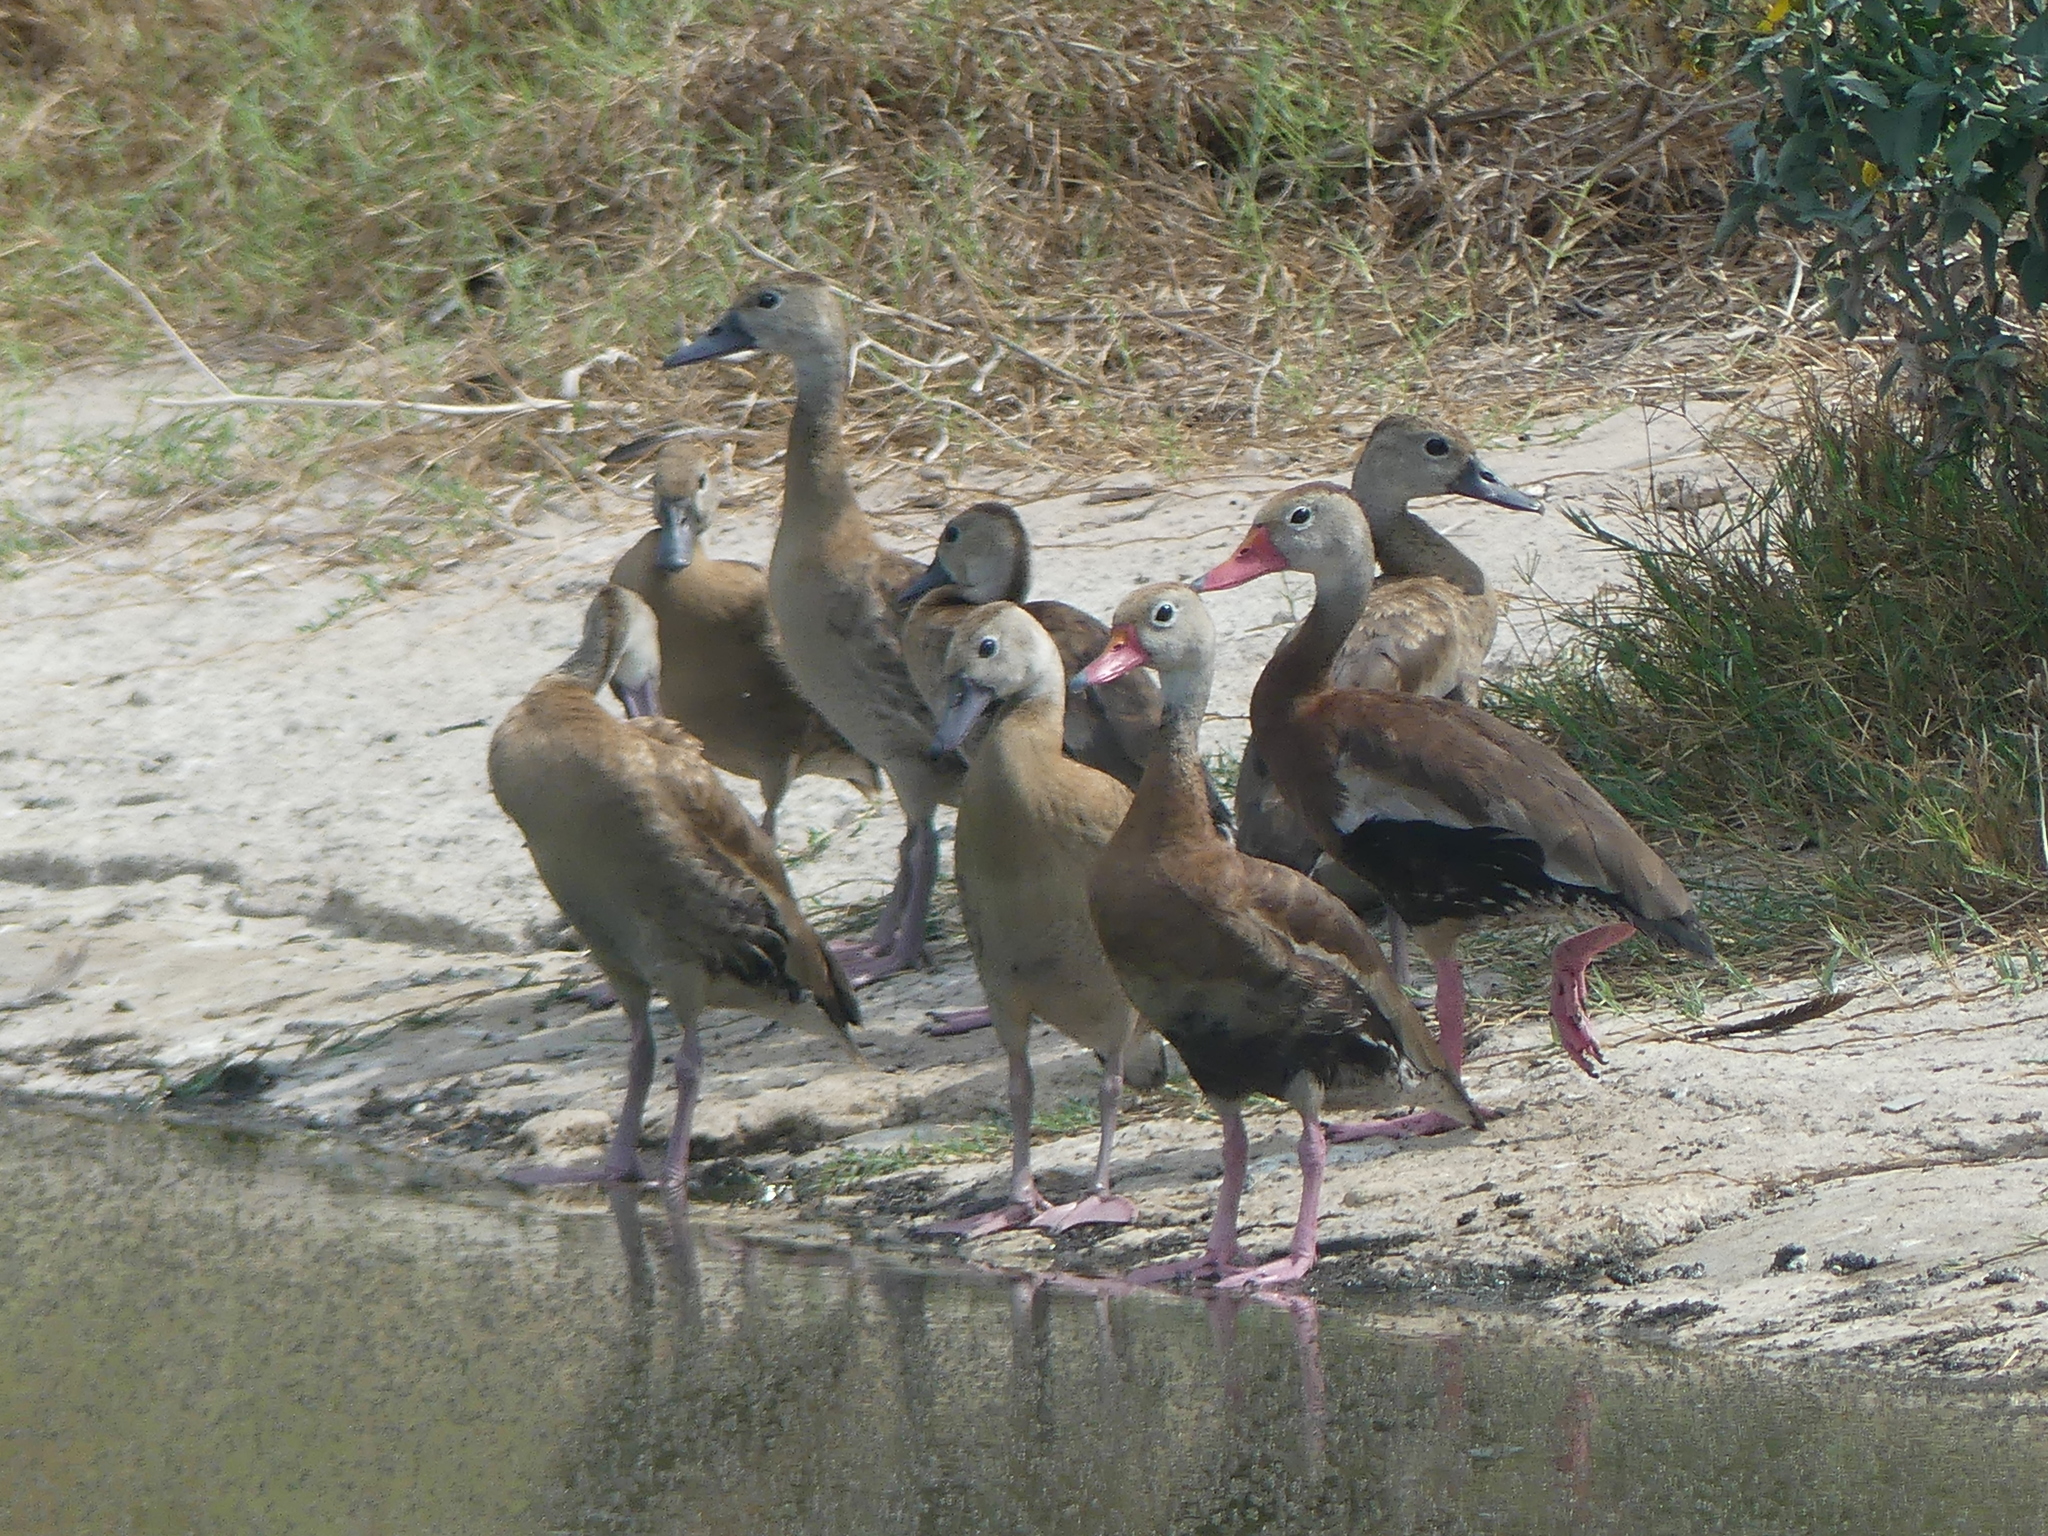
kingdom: Animalia
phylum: Chordata
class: Aves
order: Anseriformes
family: Anatidae
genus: Dendrocygna
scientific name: Dendrocygna autumnalis
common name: Black-bellied whistling duck
